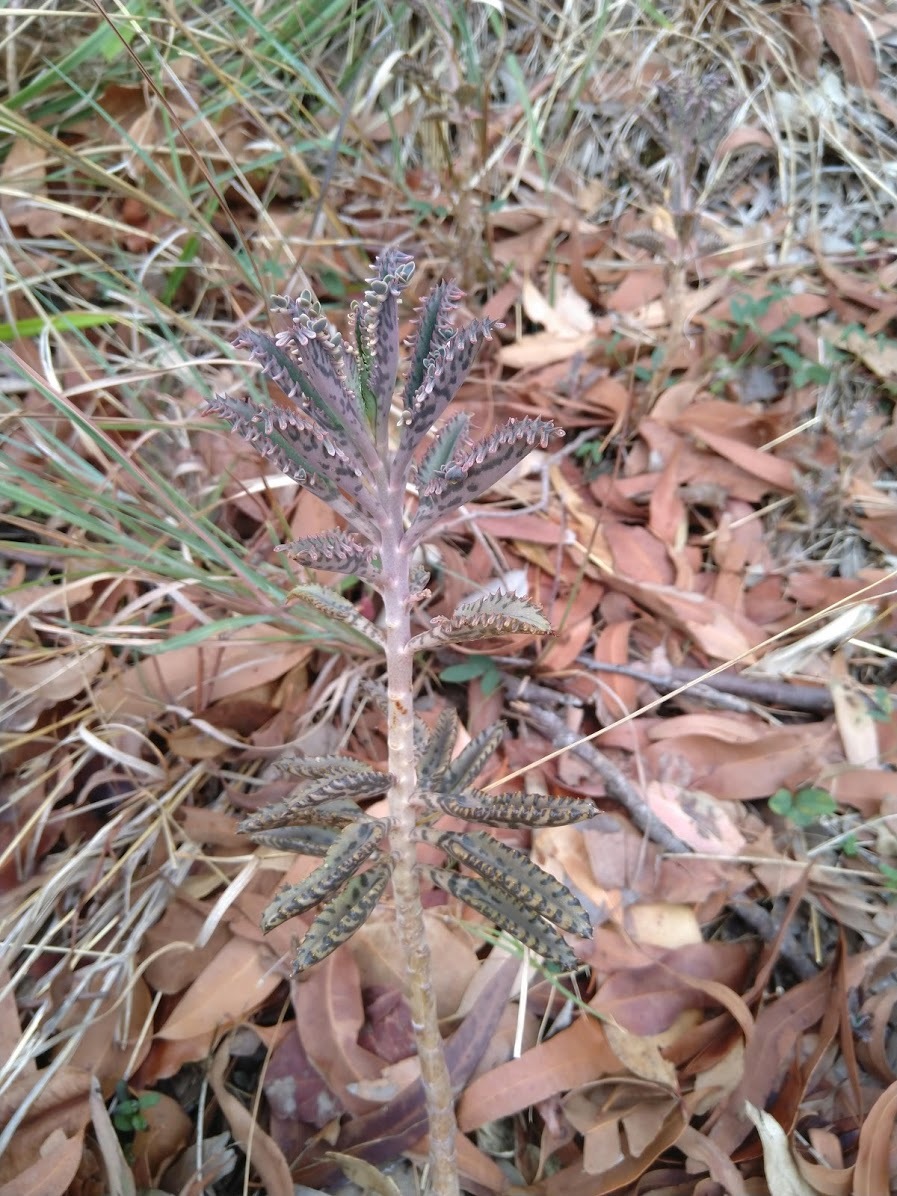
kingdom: Plantae
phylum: Tracheophyta
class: Magnoliopsida
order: Saxifragales
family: Crassulaceae
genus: Kalanchoe
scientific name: Kalanchoe houghtonii
